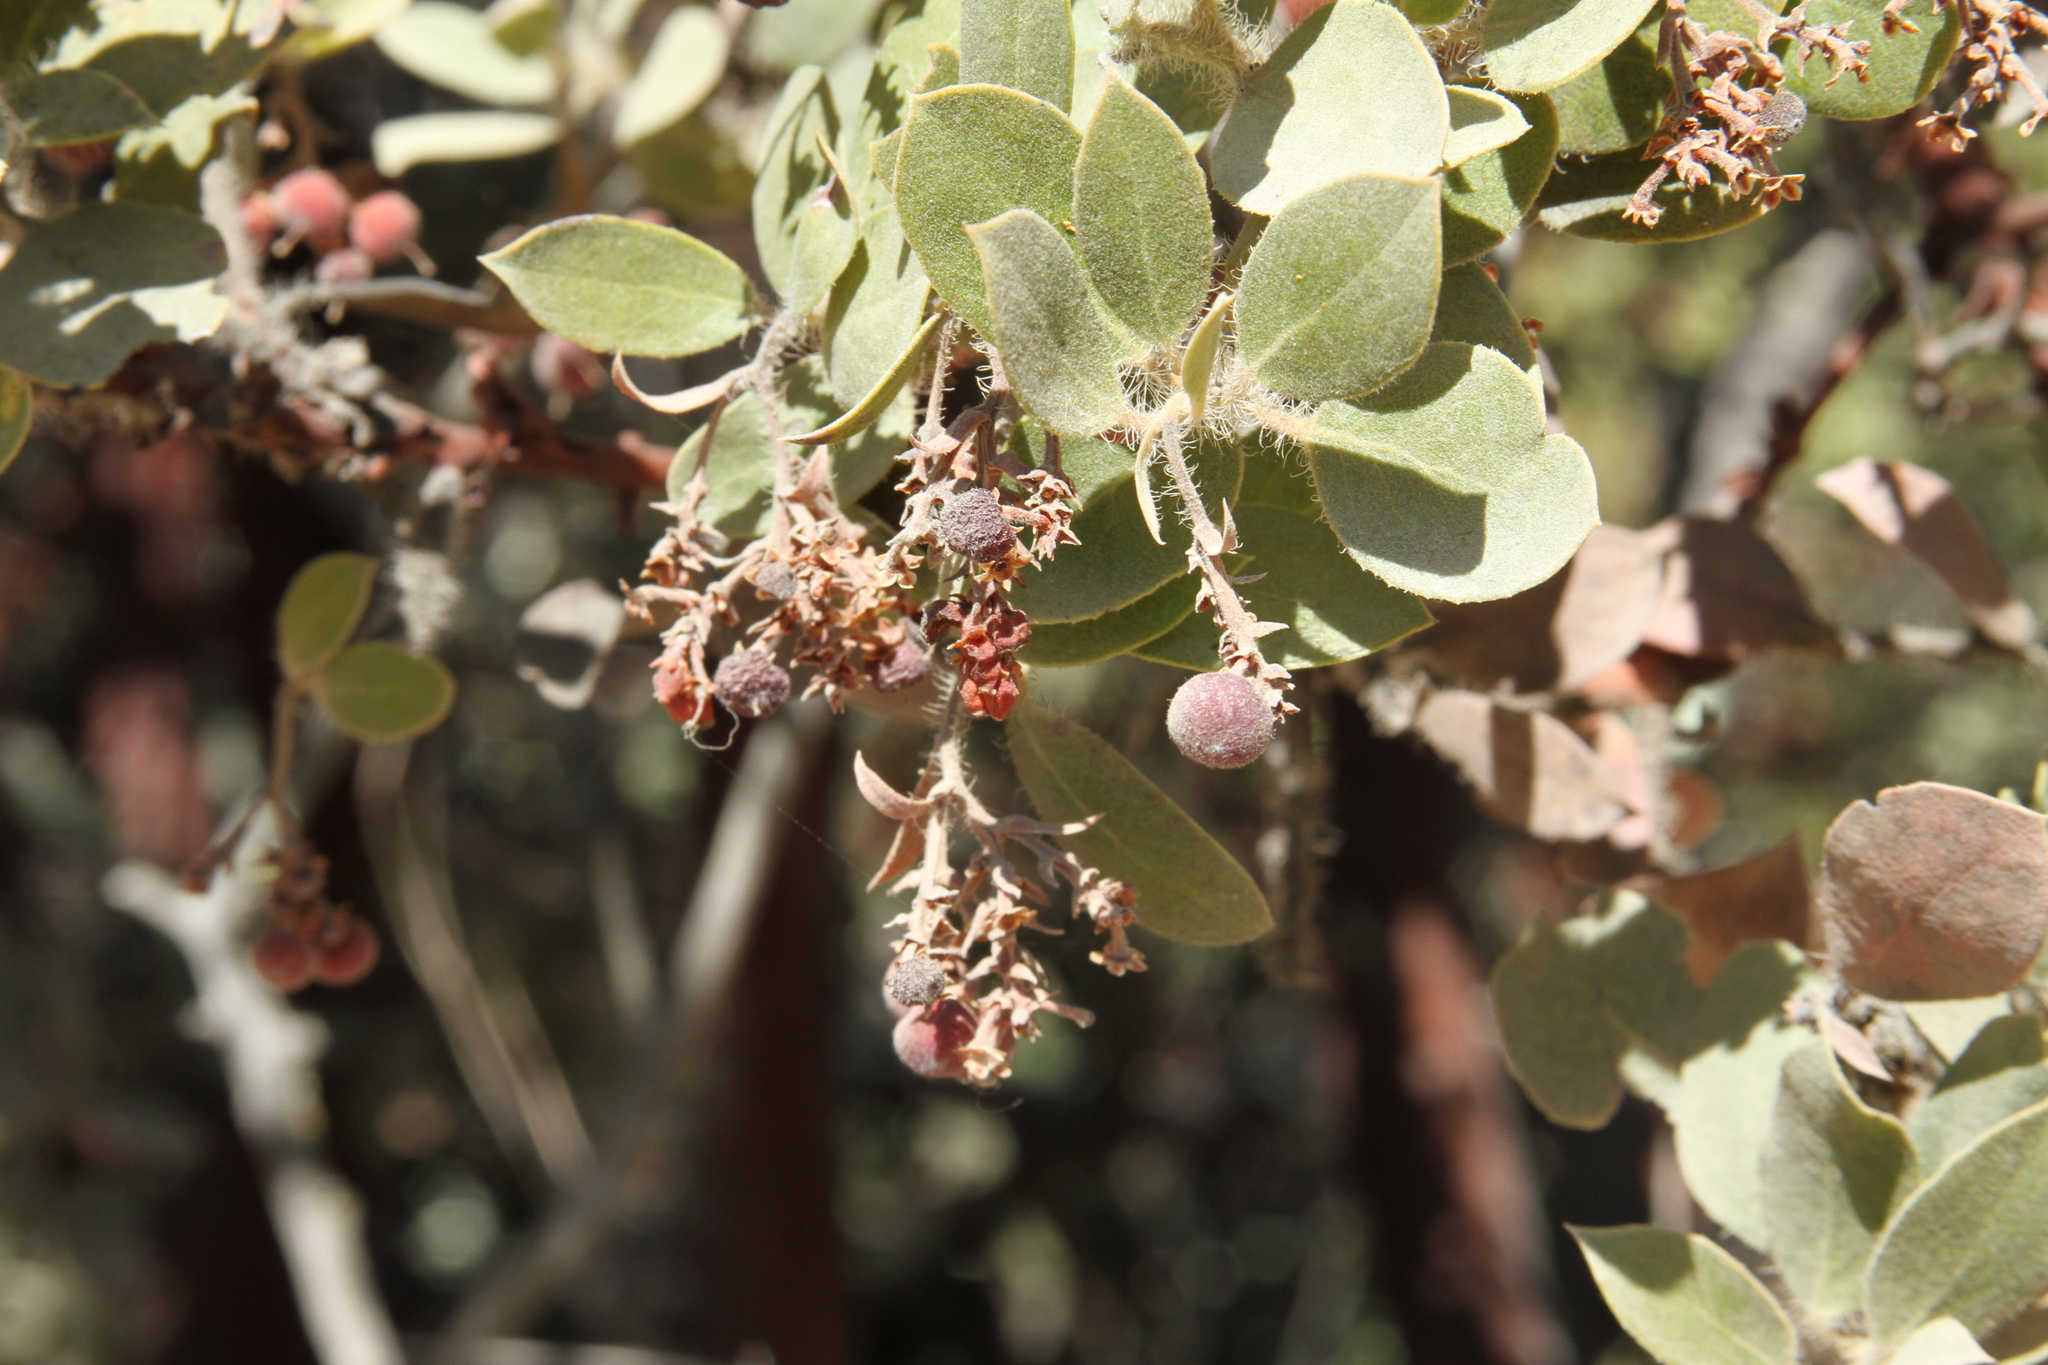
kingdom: Plantae
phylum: Tracheophyta
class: Magnoliopsida
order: Ericales
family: Ericaceae
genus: Arctostaphylos
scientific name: Arctostaphylos crustacea
